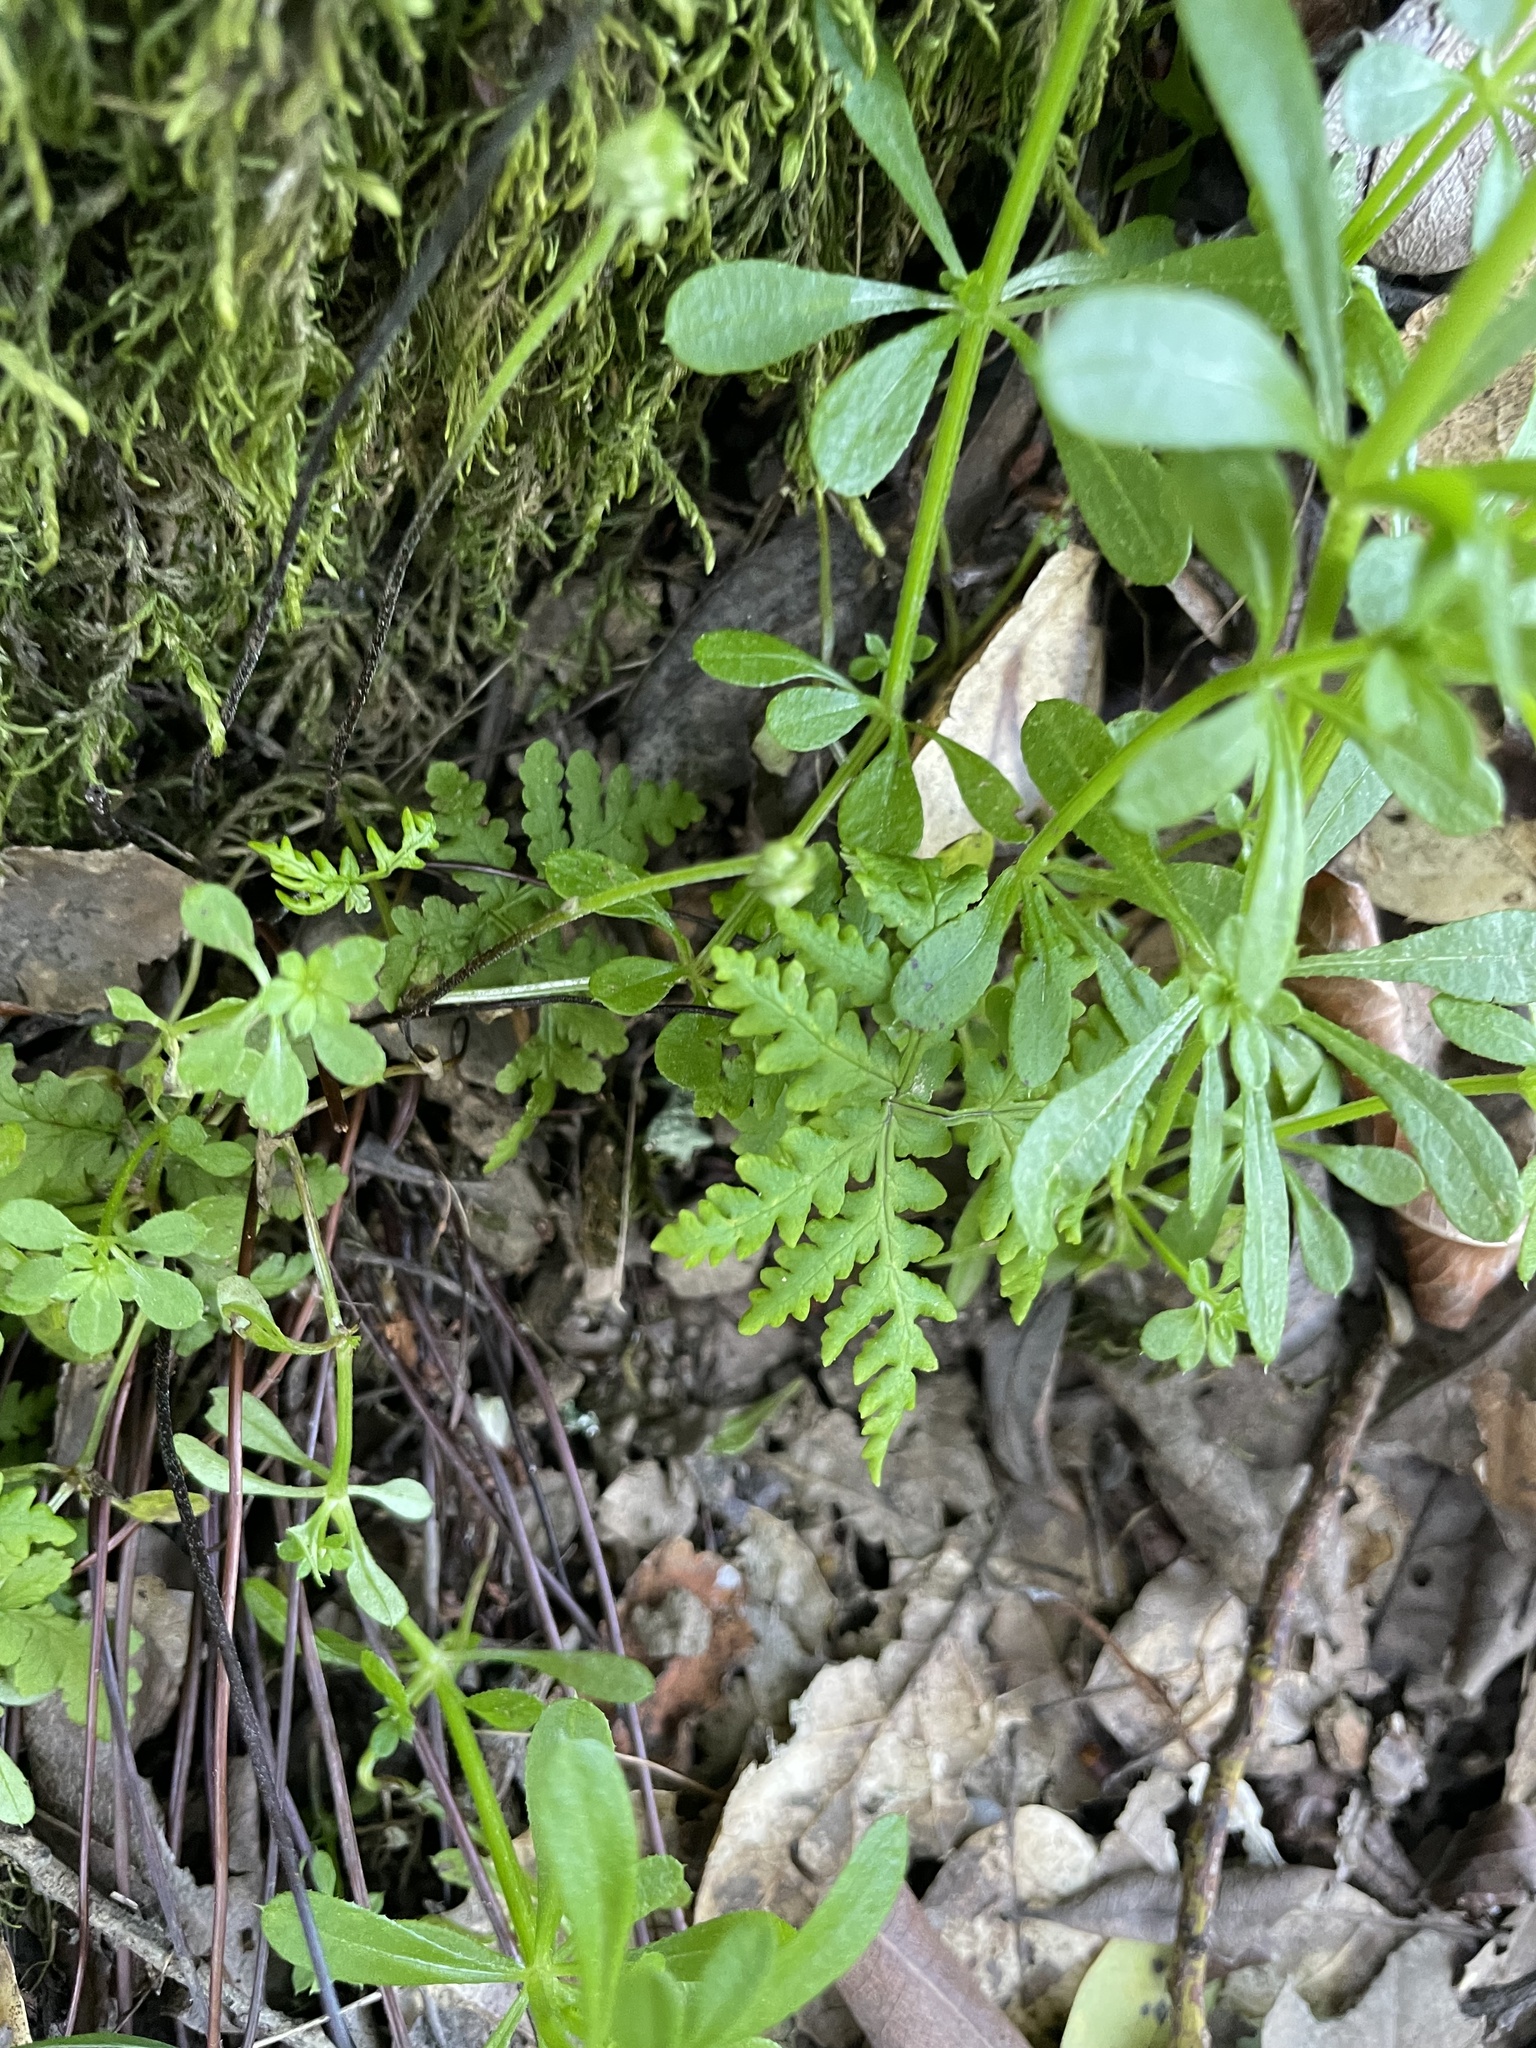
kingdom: Plantae
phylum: Tracheophyta
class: Polypodiopsida
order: Polypodiales
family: Pteridaceae
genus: Pentagramma
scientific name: Pentagramma triangularis
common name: Gold fern
